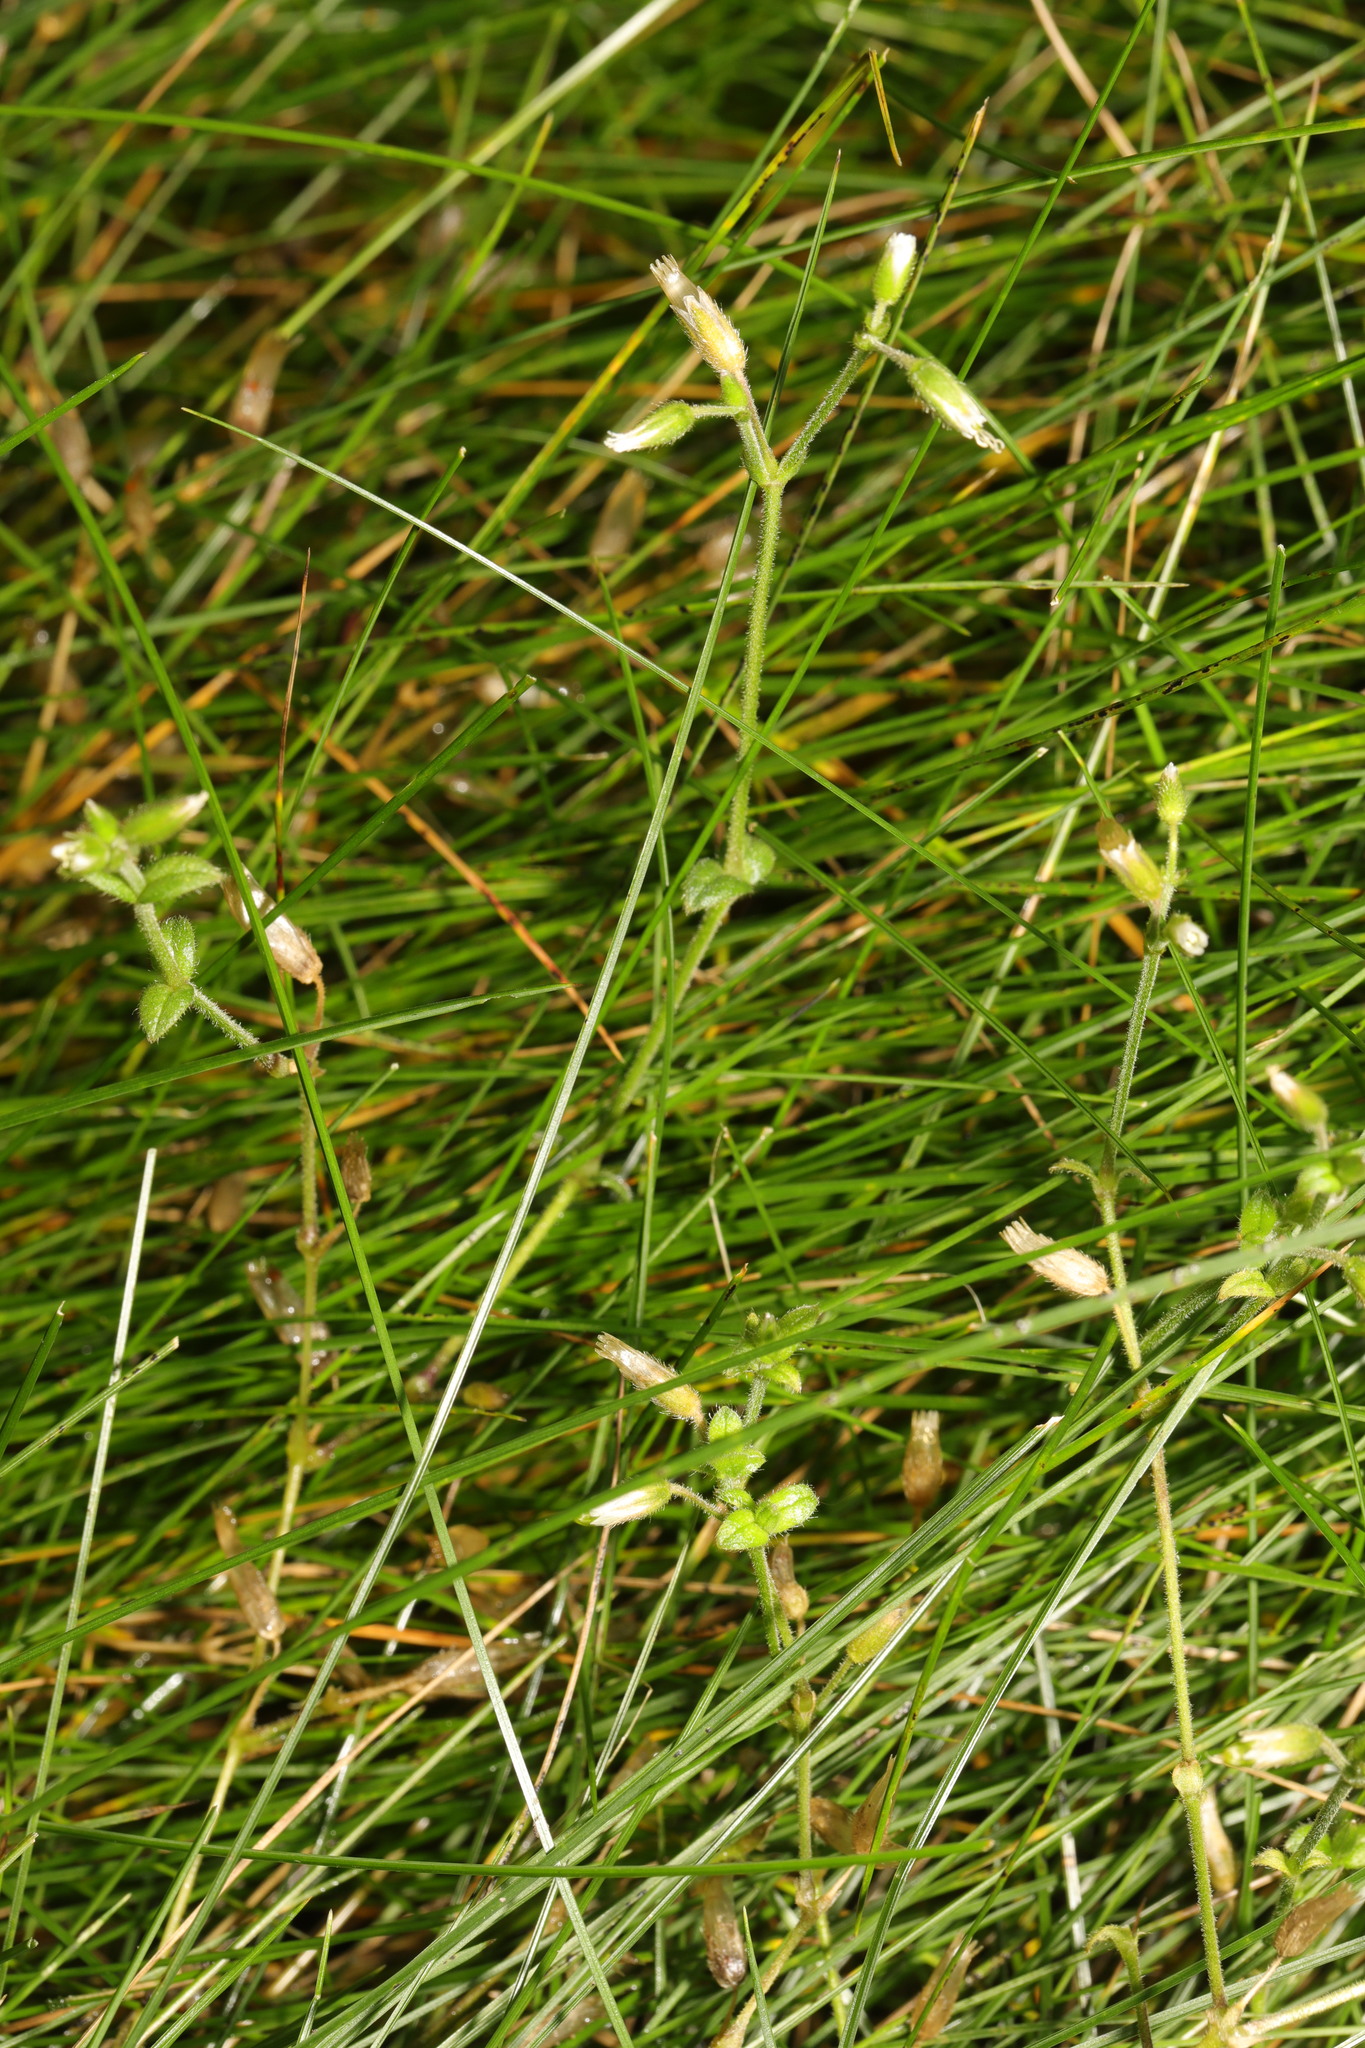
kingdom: Plantae
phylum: Tracheophyta
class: Magnoliopsida
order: Caryophyllales
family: Caryophyllaceae
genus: Cerastium
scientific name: Cerastium fontanum
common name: Common mouse-ear
